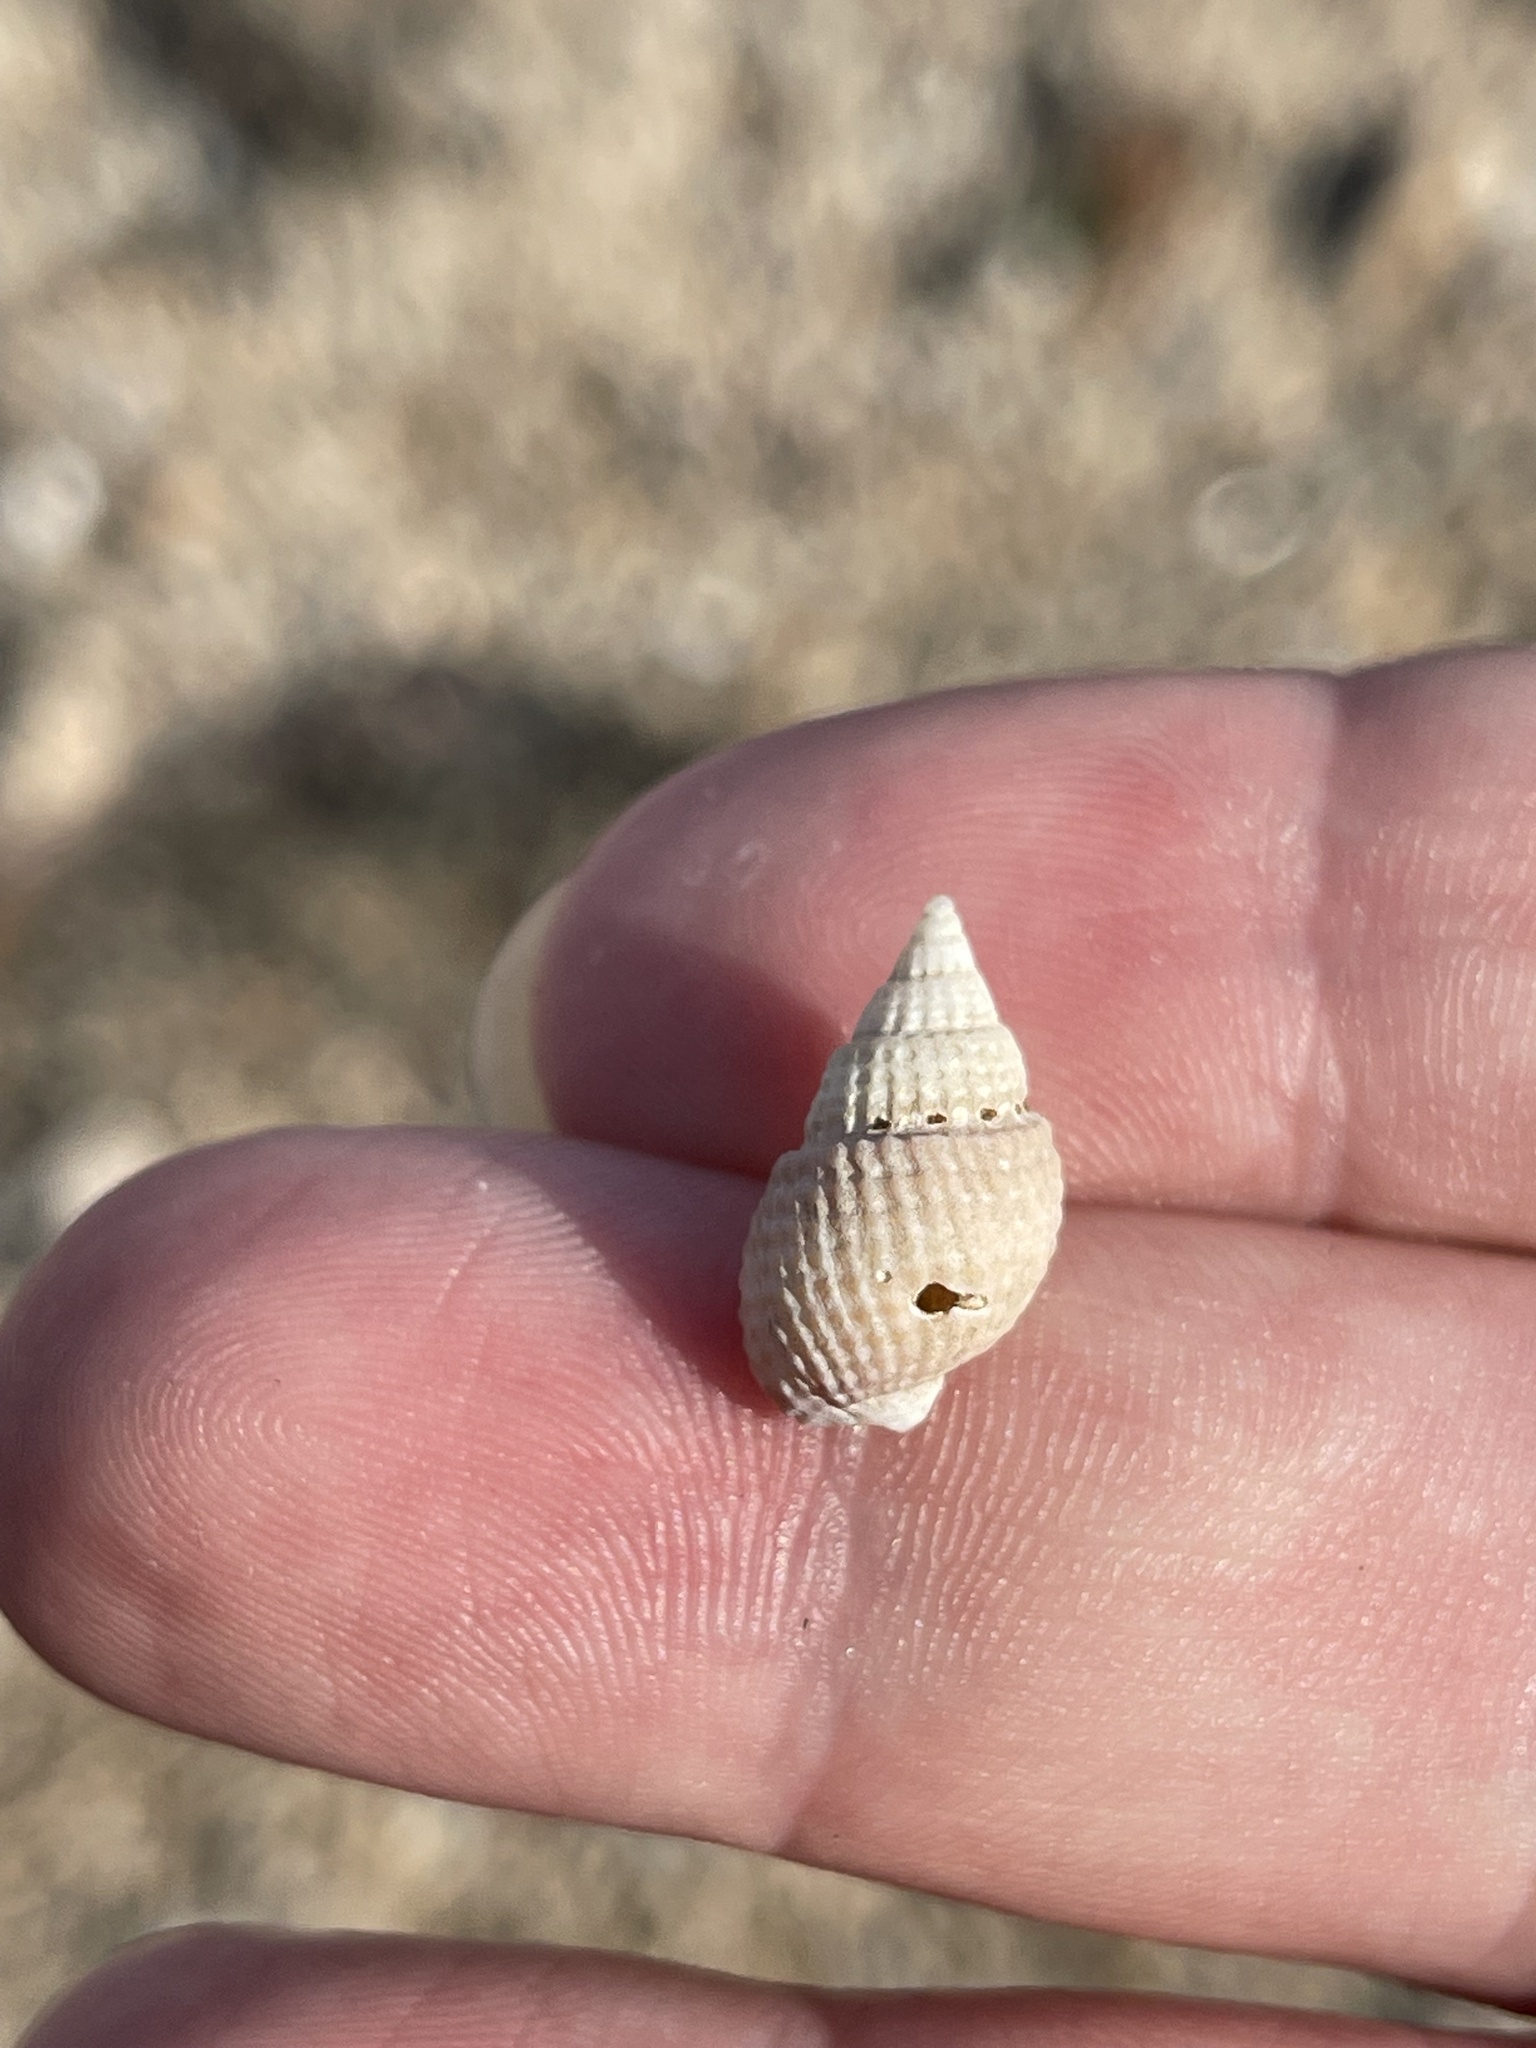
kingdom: Animalia
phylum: Mollusca
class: Gastropoda
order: Neogastropoda
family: Nassariidae
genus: Ilyanassa
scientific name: Ilyanassa trivittata
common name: Three-line mudsnail
